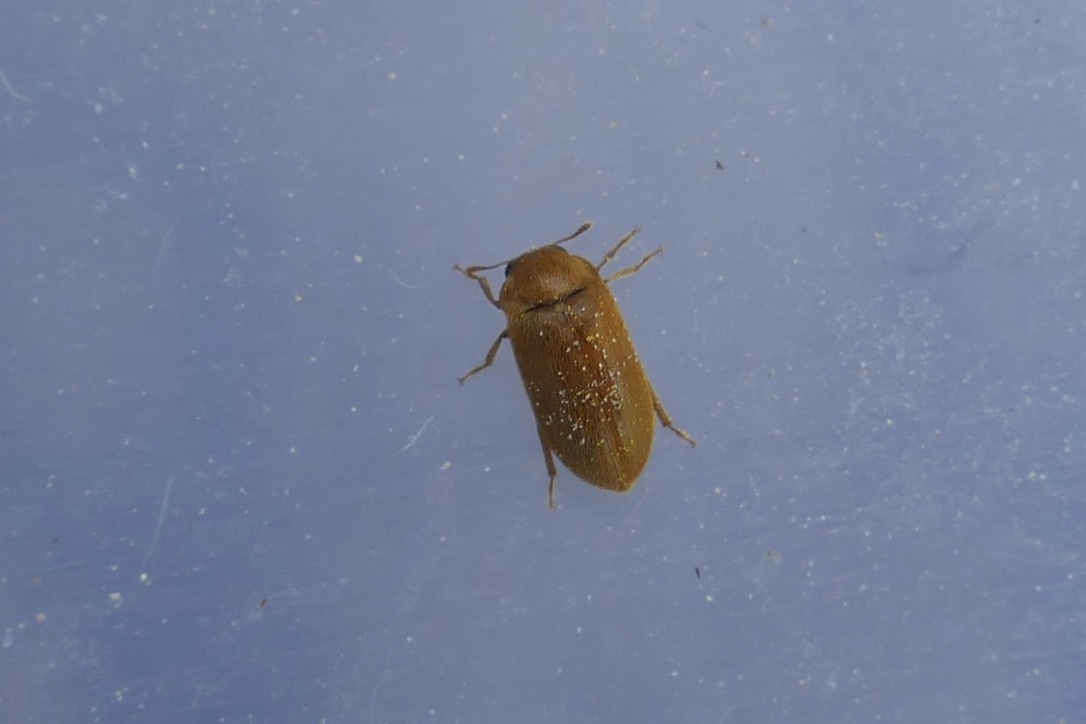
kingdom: Animalia
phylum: Arthropoda
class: Insecta
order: Coleoptera
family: Byturidae
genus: Byturus
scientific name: Byturus ochraceus
